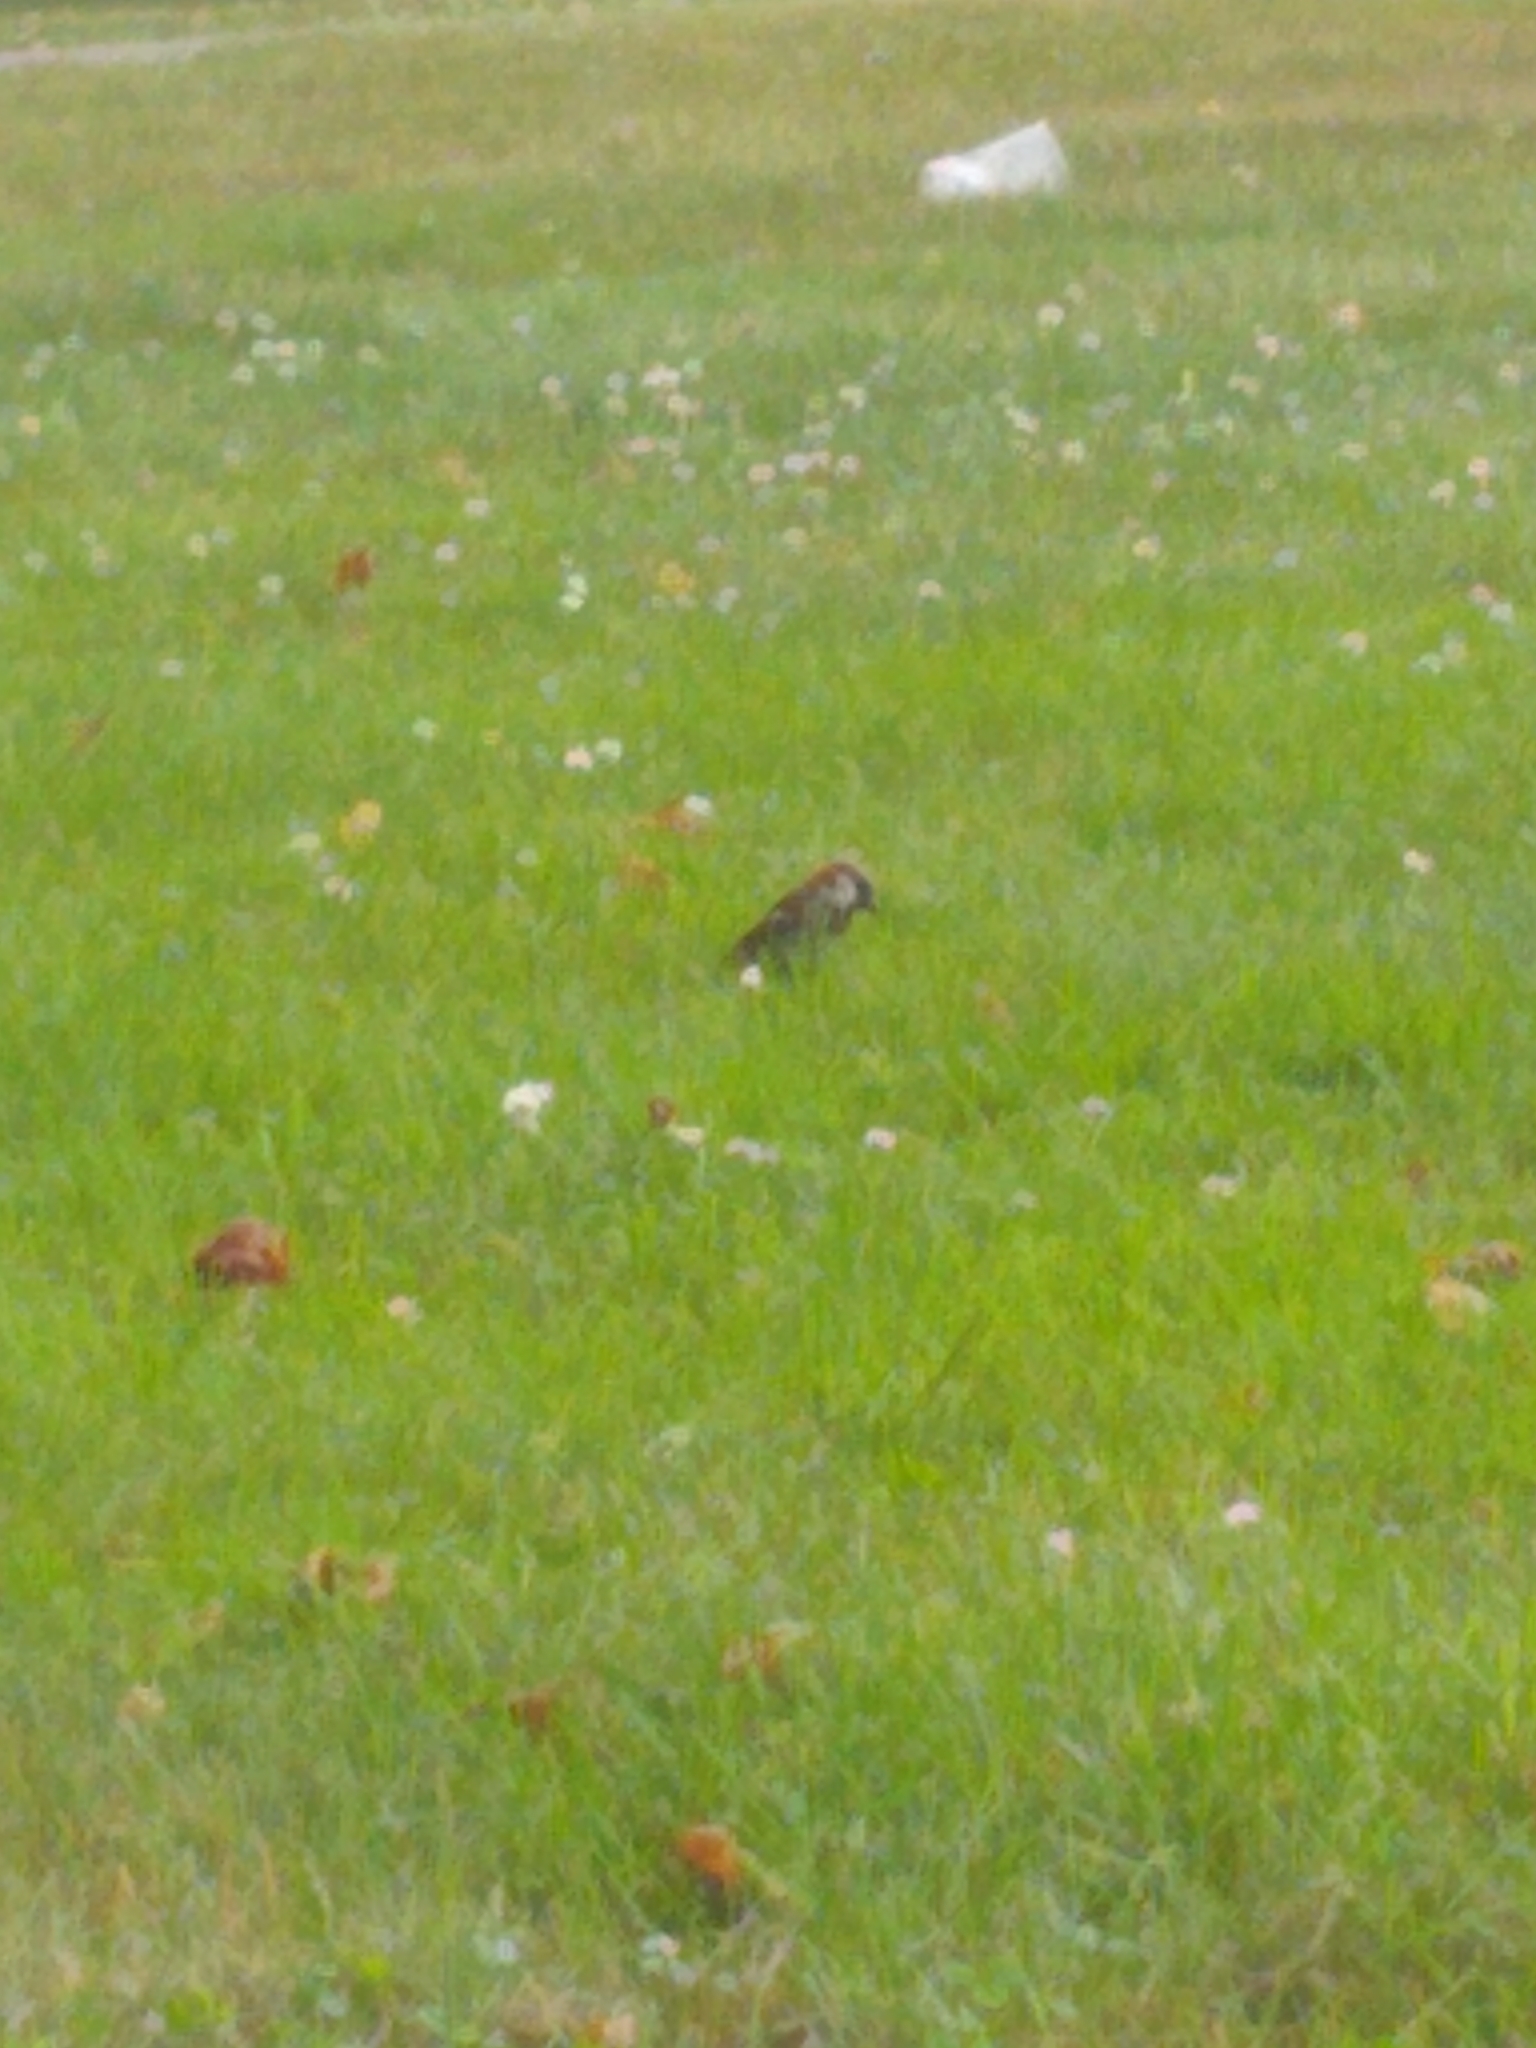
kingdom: Animalia
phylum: Chordata
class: Aves
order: Passeriformes
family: Passeridae
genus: Passer
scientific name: Passer domesticus
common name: House sparrow
